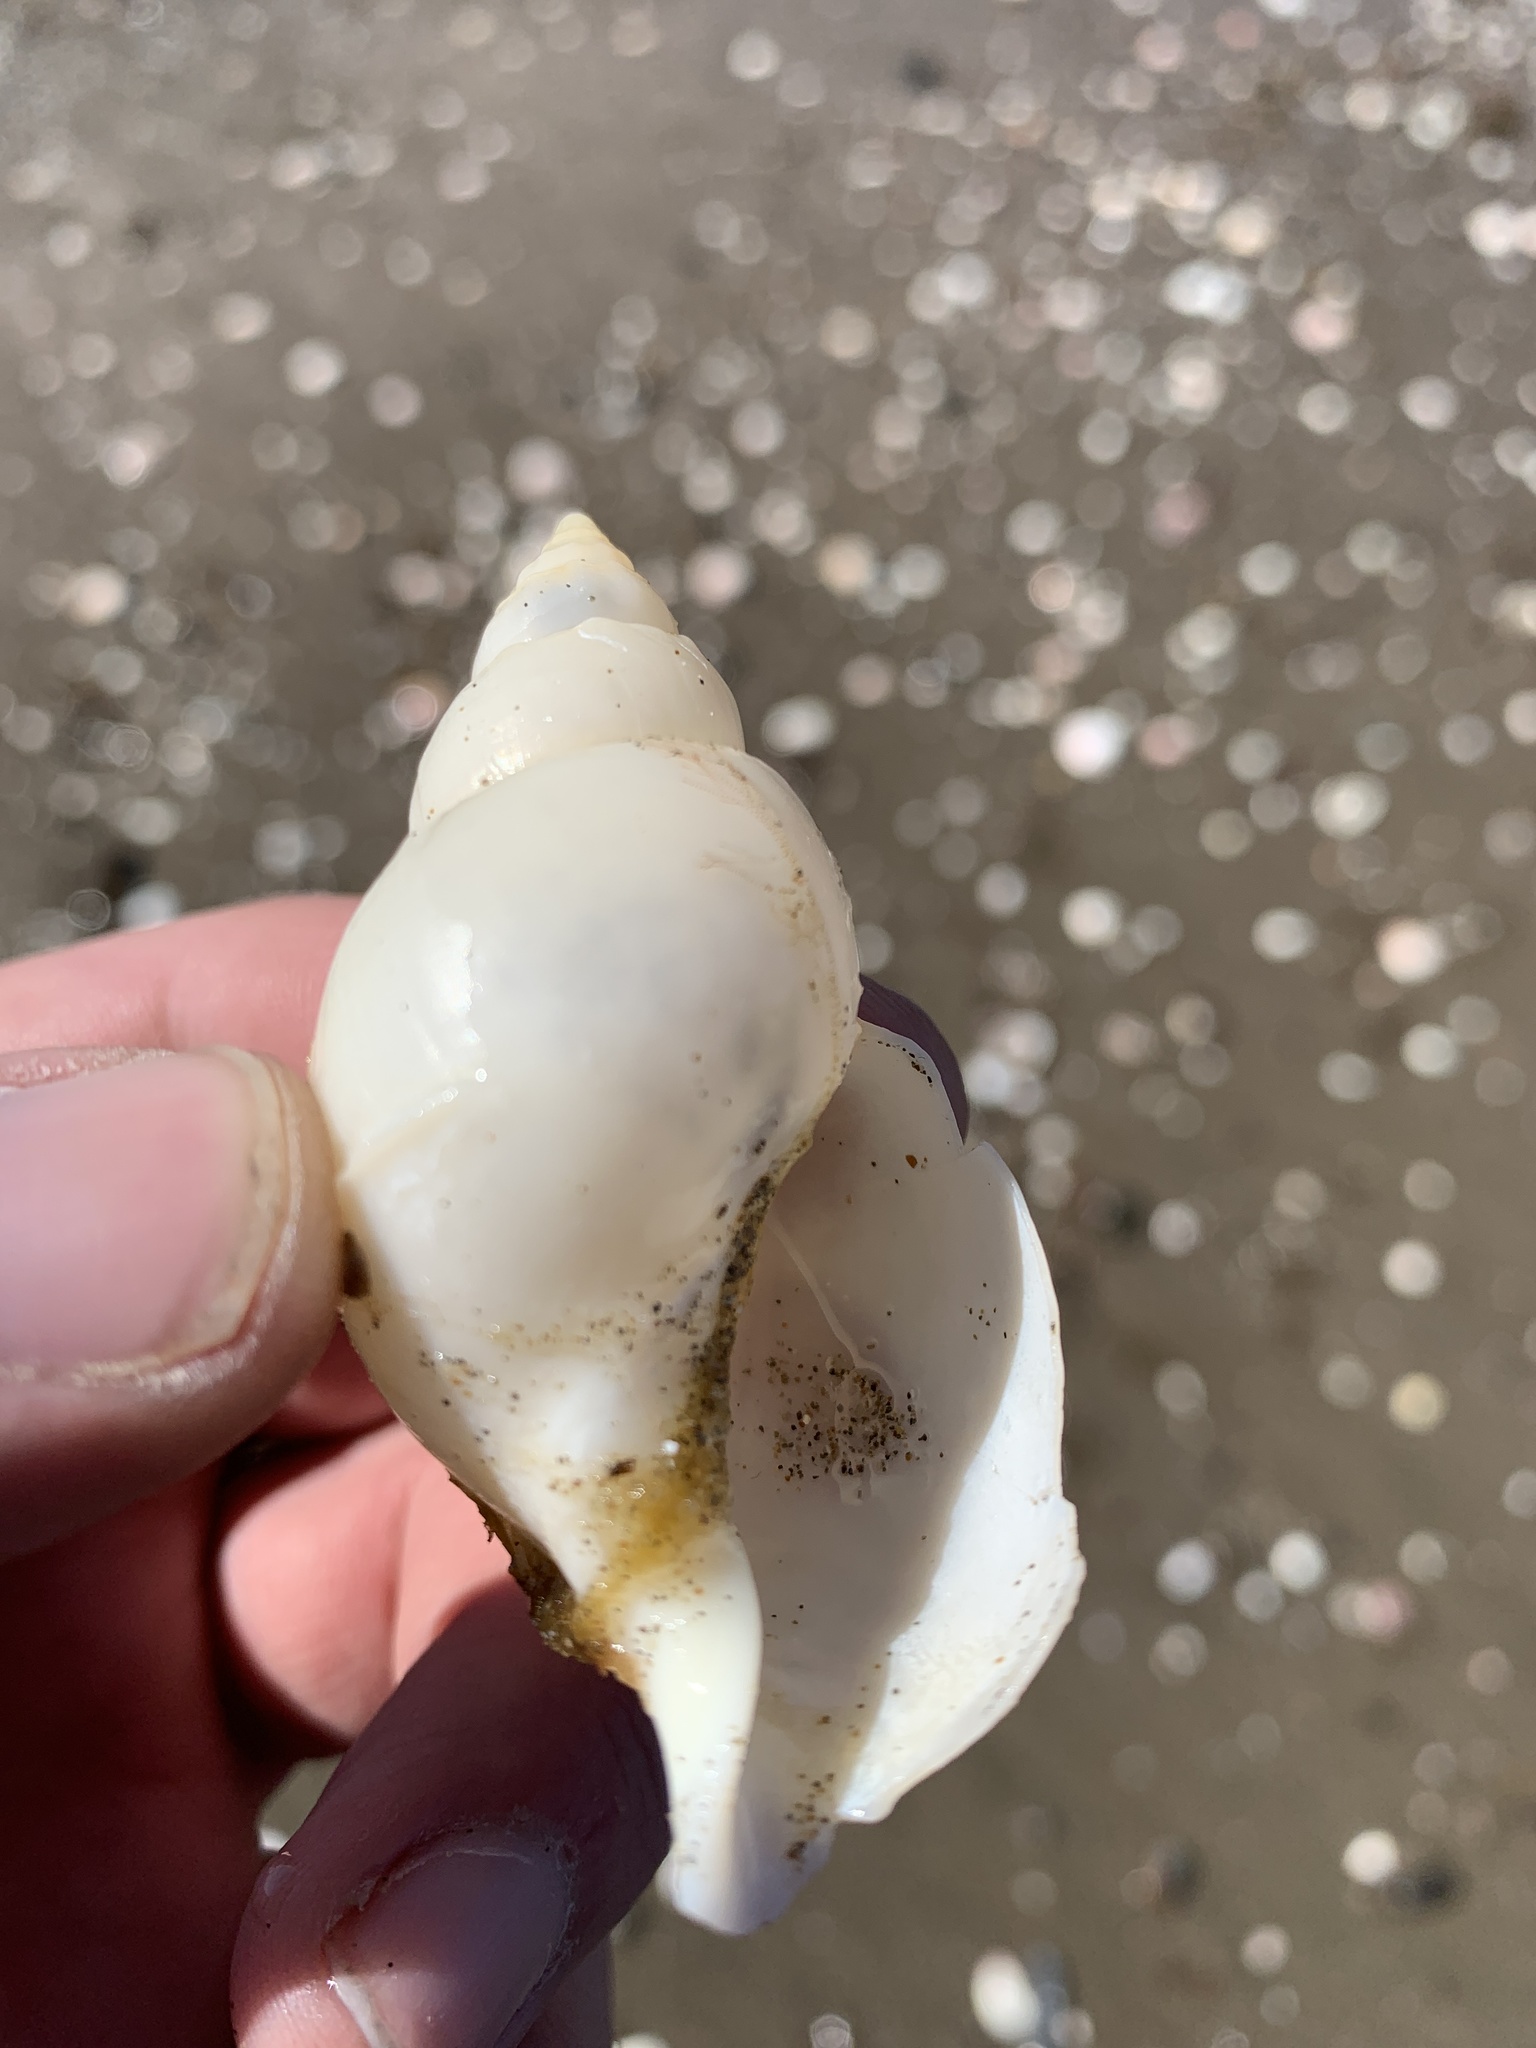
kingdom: Animalia
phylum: Mollusca
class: Gastropoda
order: Neogastropoda
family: Buccinanopsidae
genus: Buccinanops
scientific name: Buccinanops cochlidium
